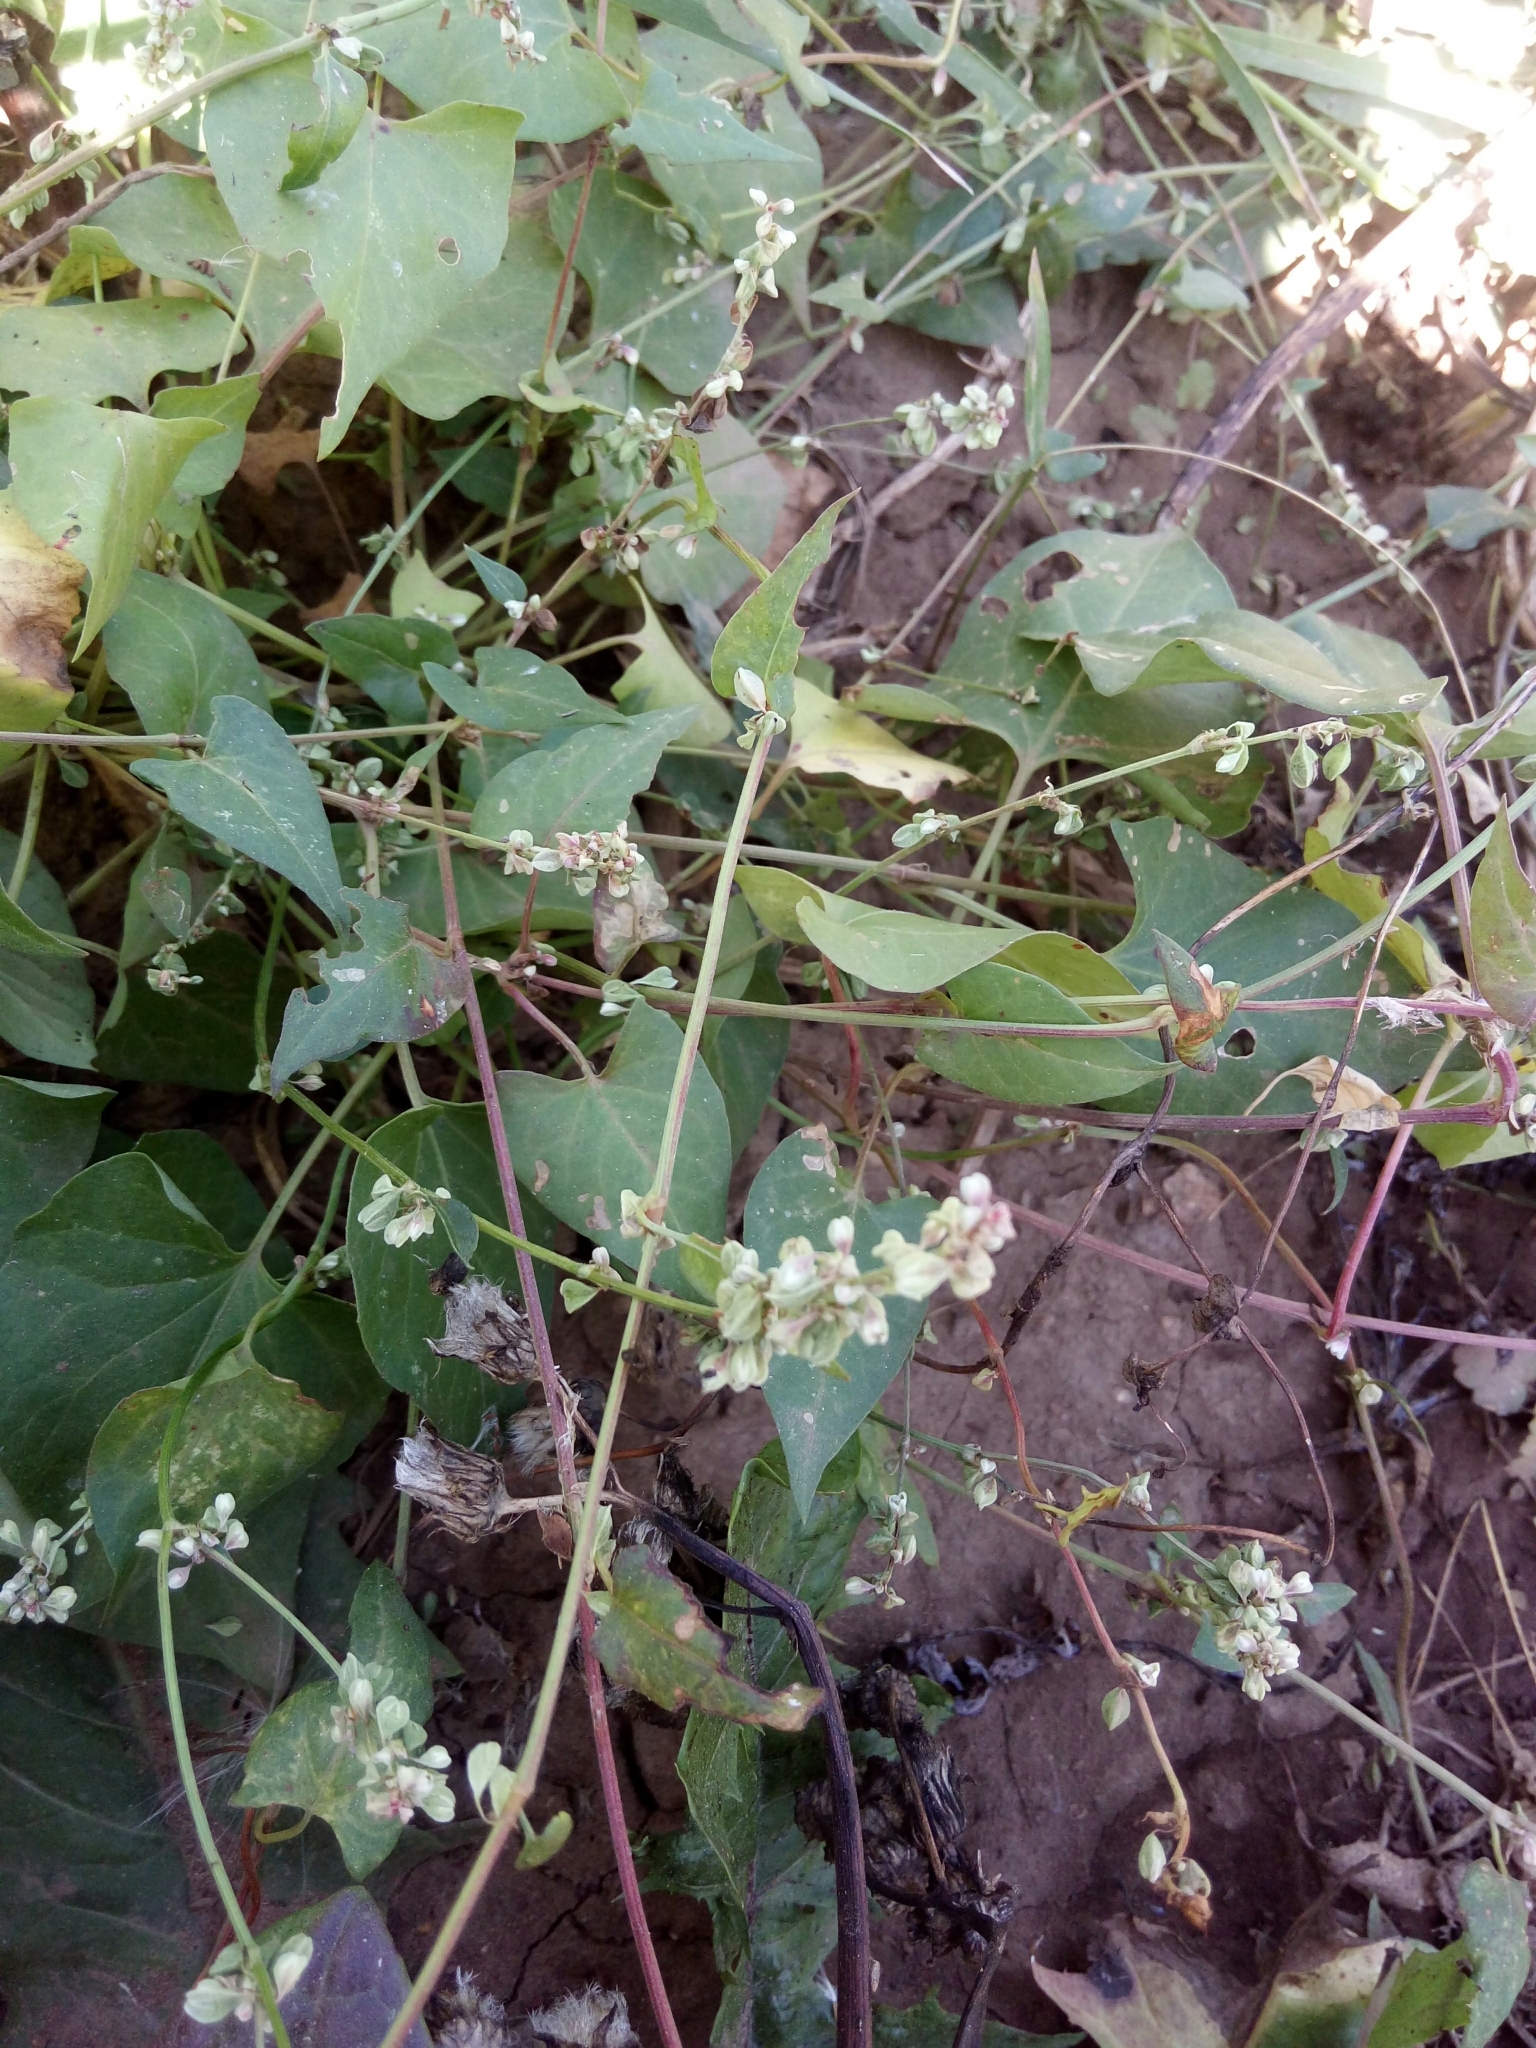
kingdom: Plantae
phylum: Tracheophyta
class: Magnoliopsida
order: Caryophyllales
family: Polygonaceae
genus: Fallopia
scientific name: Fallopia dumetorum
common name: Copse-bindweed
